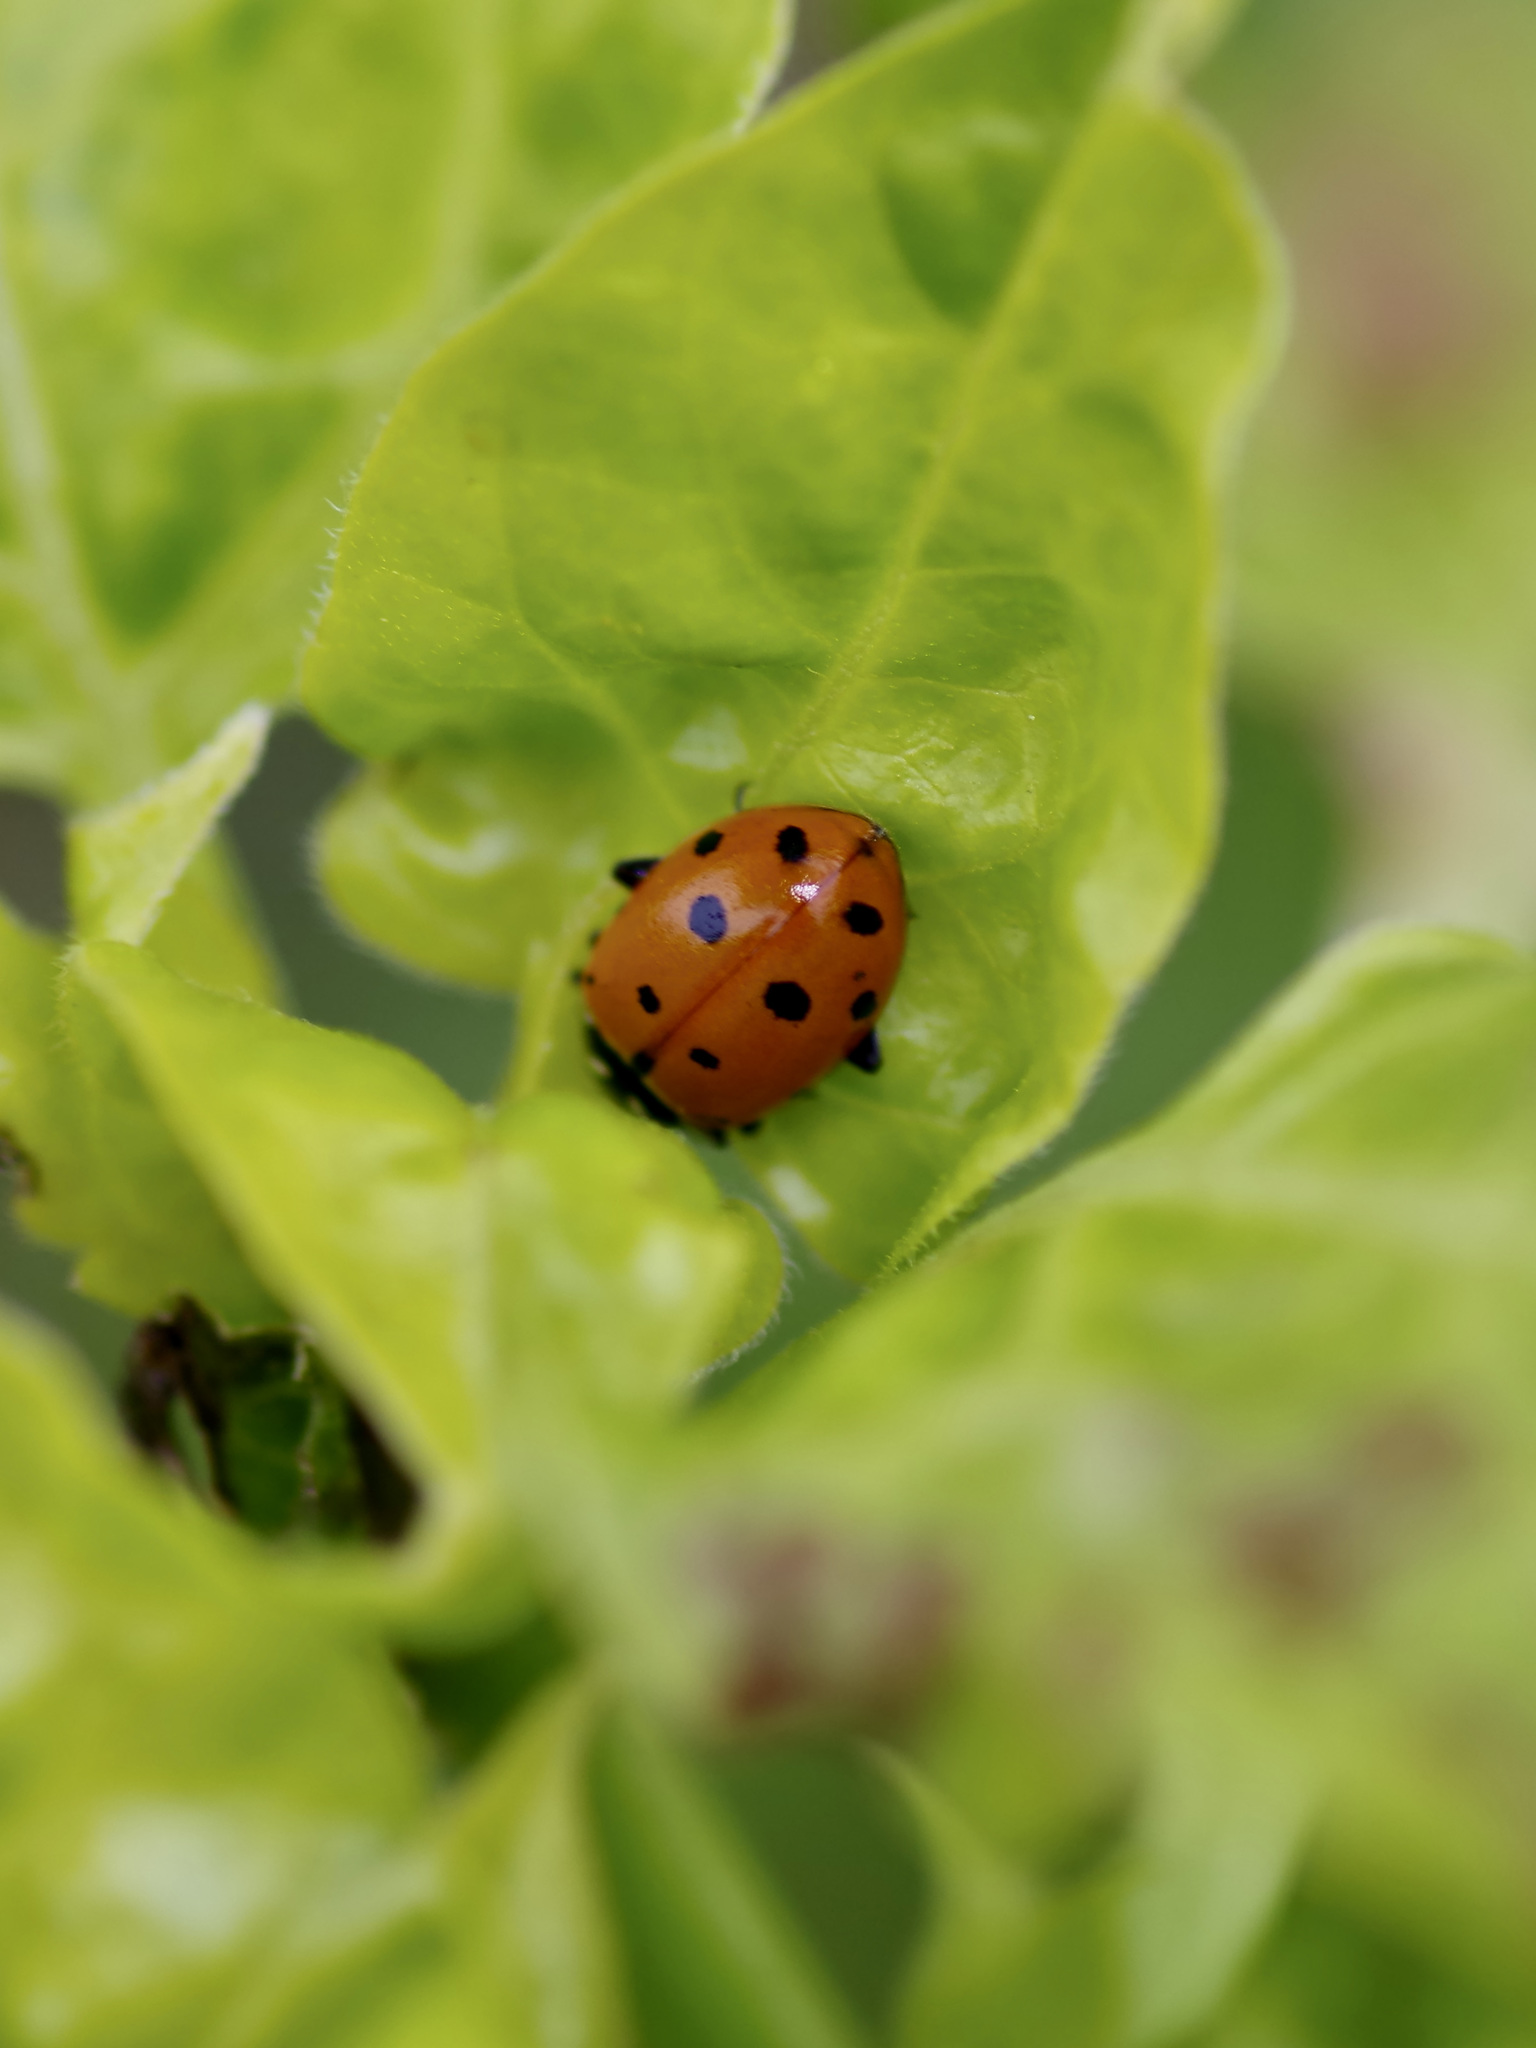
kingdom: Animalia
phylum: Arthropoda
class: Insecta
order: Coleoptera
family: Coccinellidae
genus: Hippodamia
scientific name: Hippodamia convergens
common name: Convergent lady beetle
